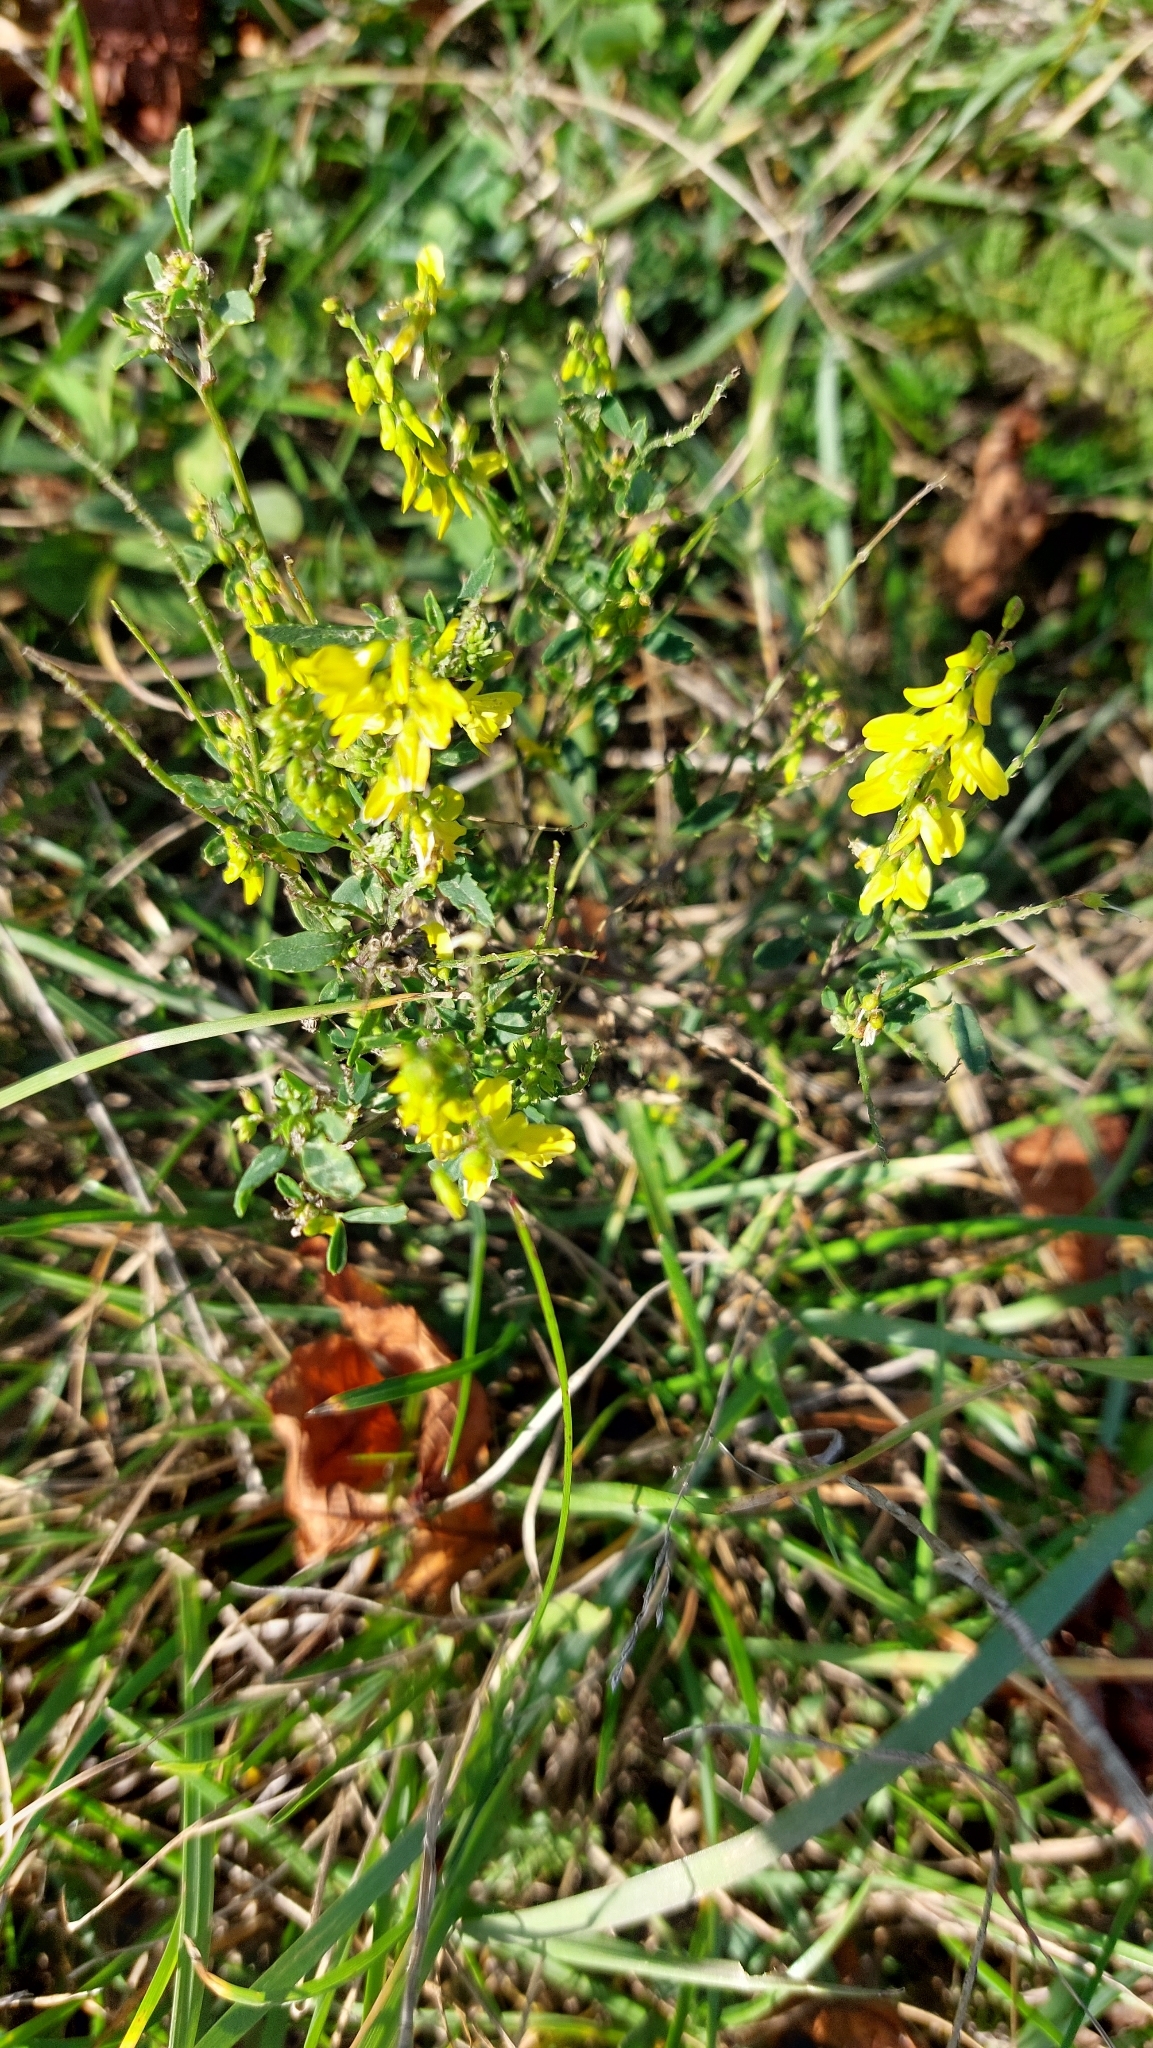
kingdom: Plantae
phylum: Tracheophyta
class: Magnoliopsida
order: Fabales
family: Fabaceae
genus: Melilotus
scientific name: Melilotus officinalis
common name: Sweetclover
